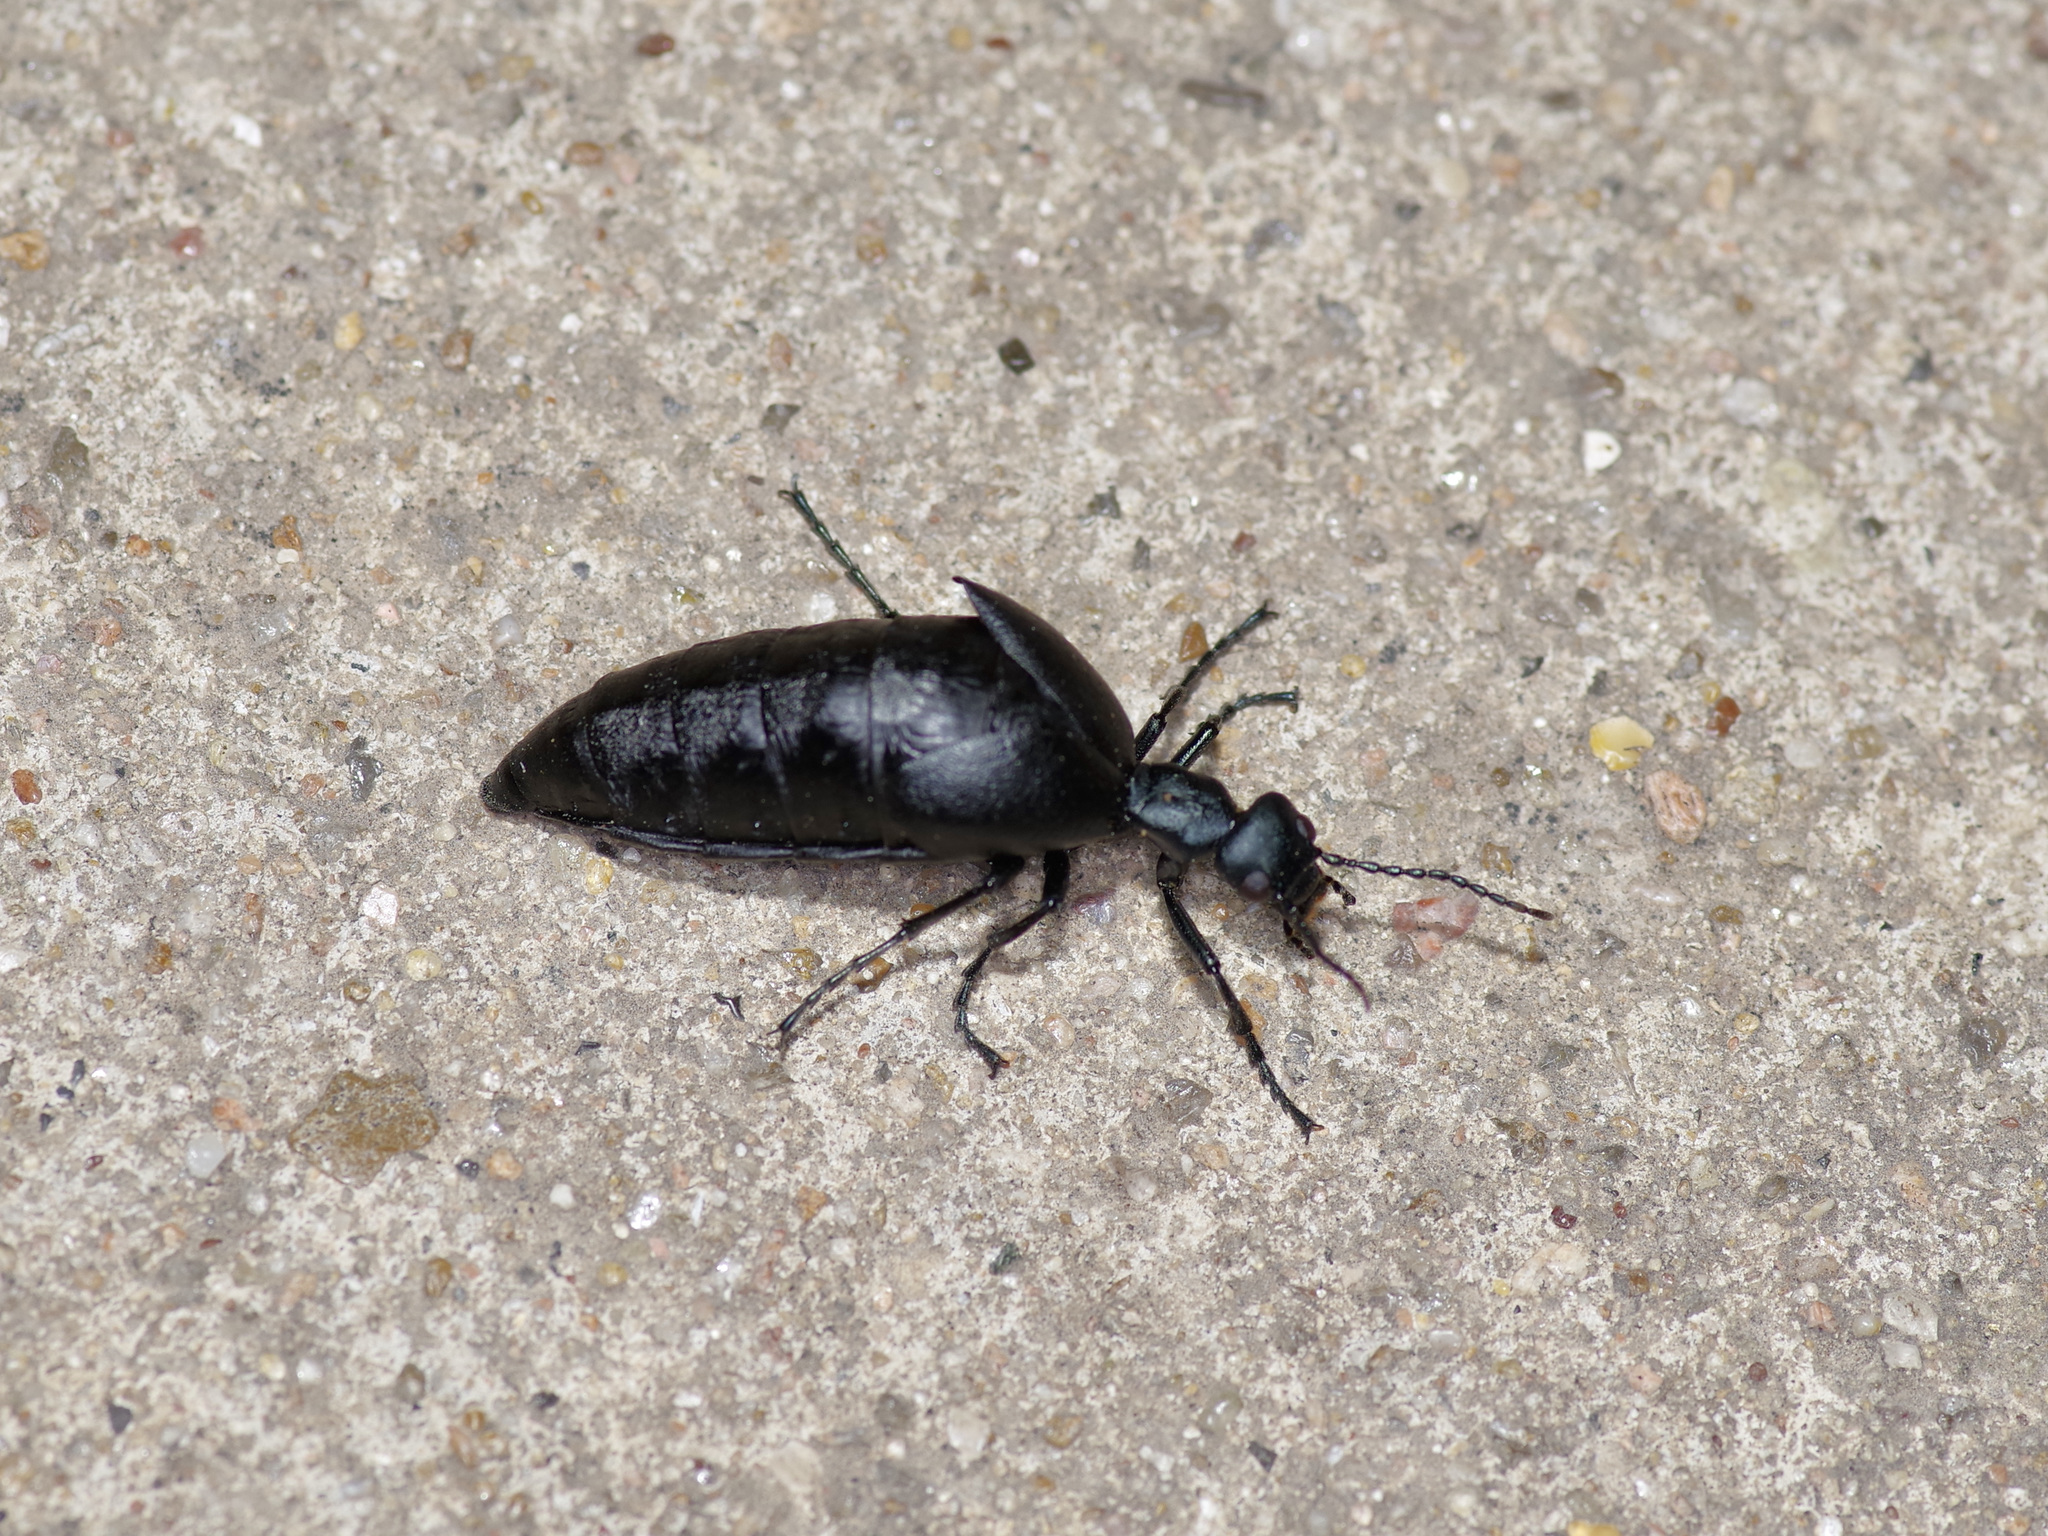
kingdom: Animalia
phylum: Arthropoda
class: Insecta
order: Coleoptera
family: Meloidae
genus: Meloe
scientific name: Meloe americanus
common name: Buttercup oil beetle
